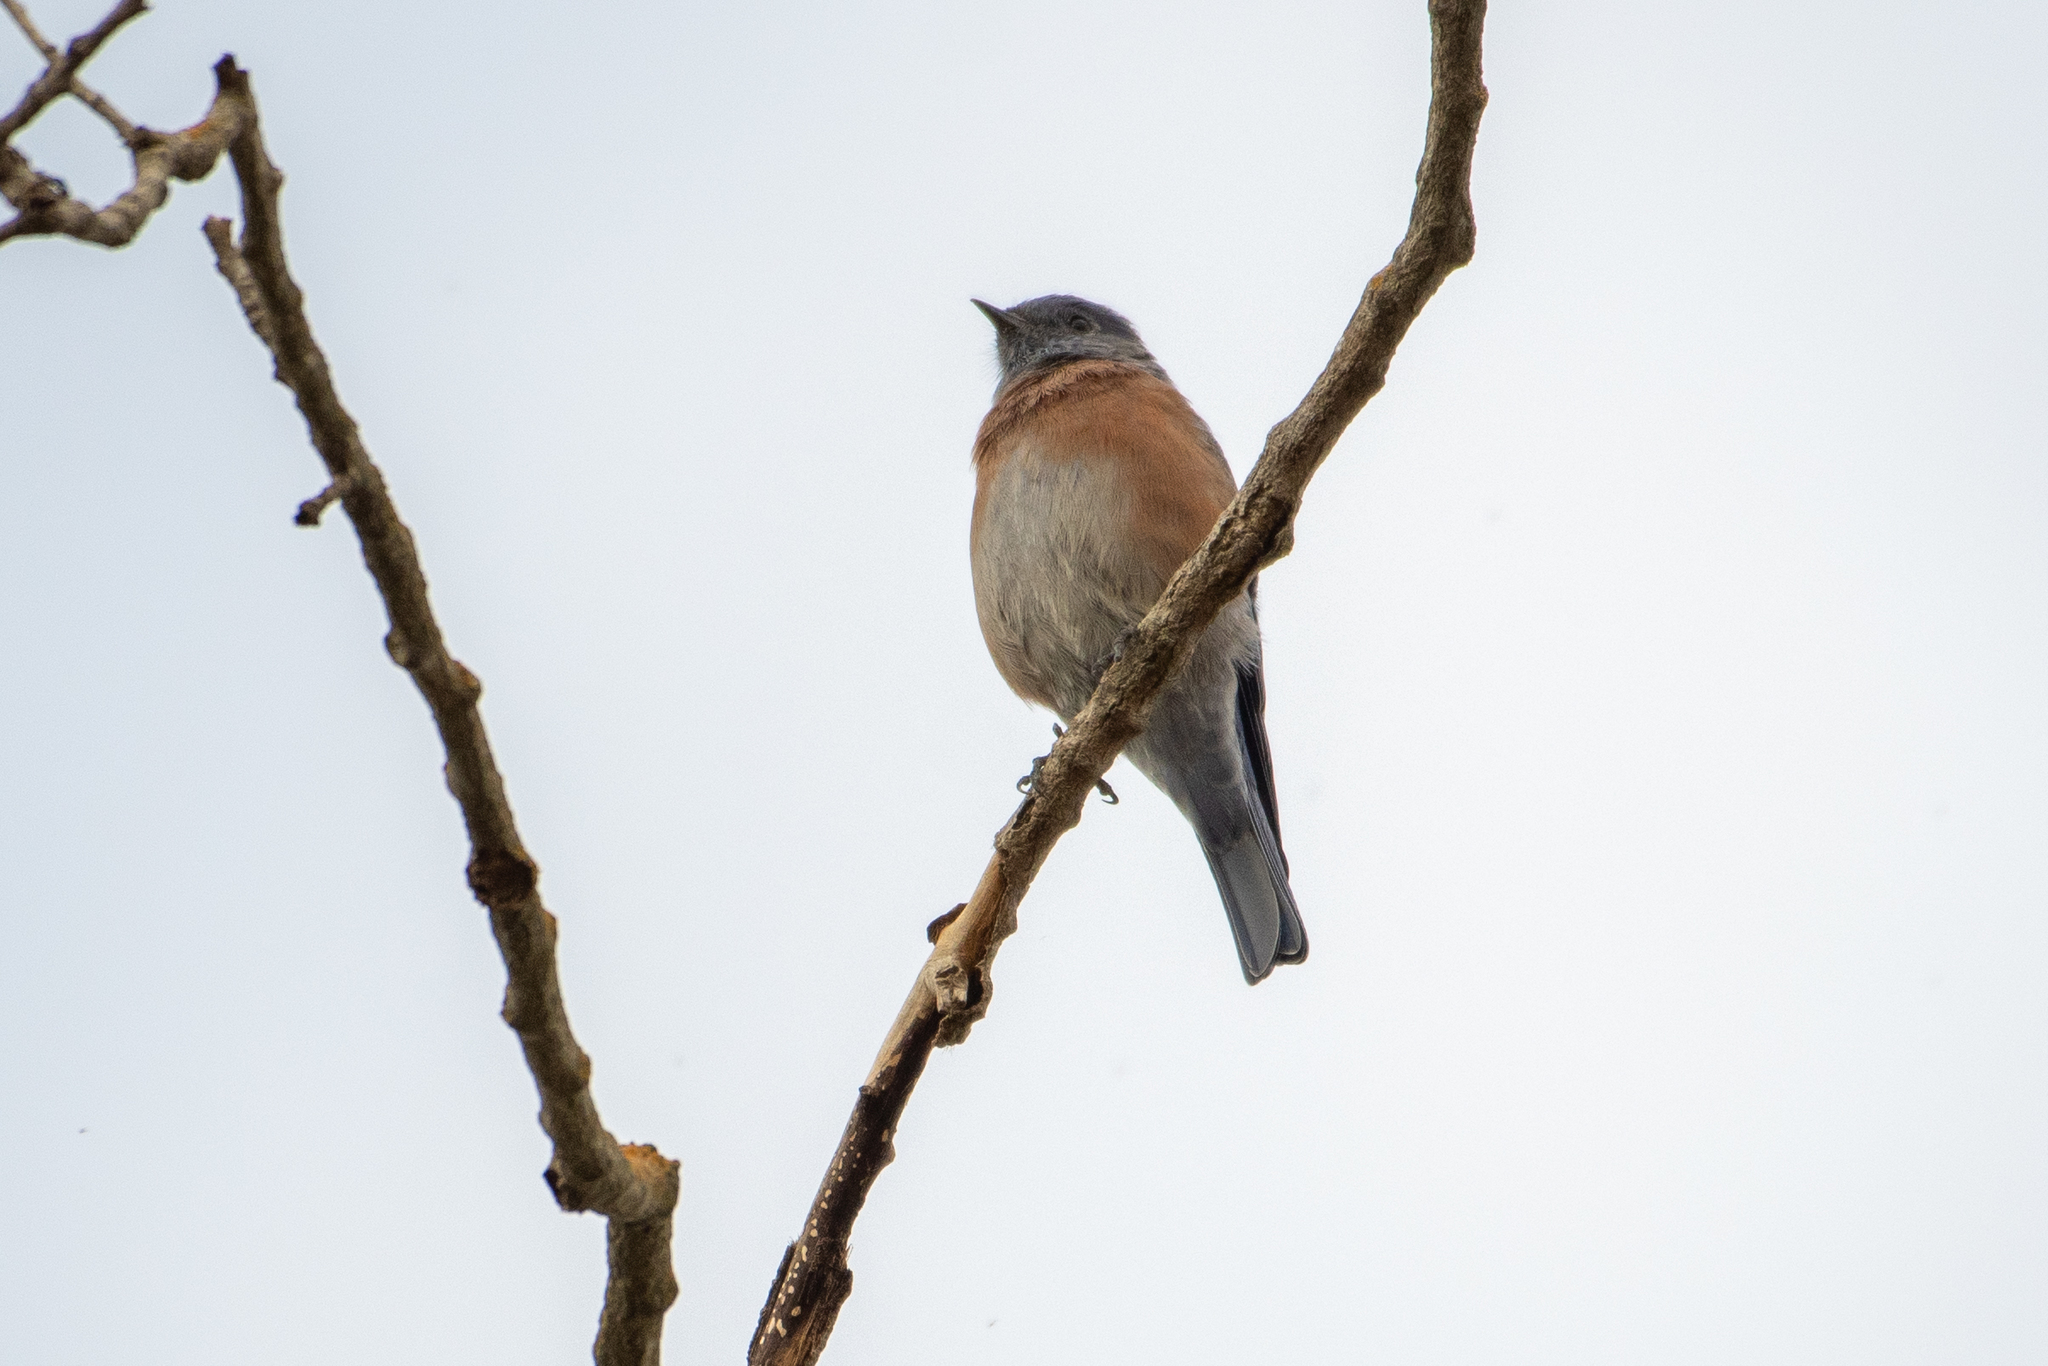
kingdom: Animalia
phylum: Chordata
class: Aves
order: Passeriformes
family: Turdidae
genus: Sialia
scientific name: Sialia mexicana
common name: Western bluebird
